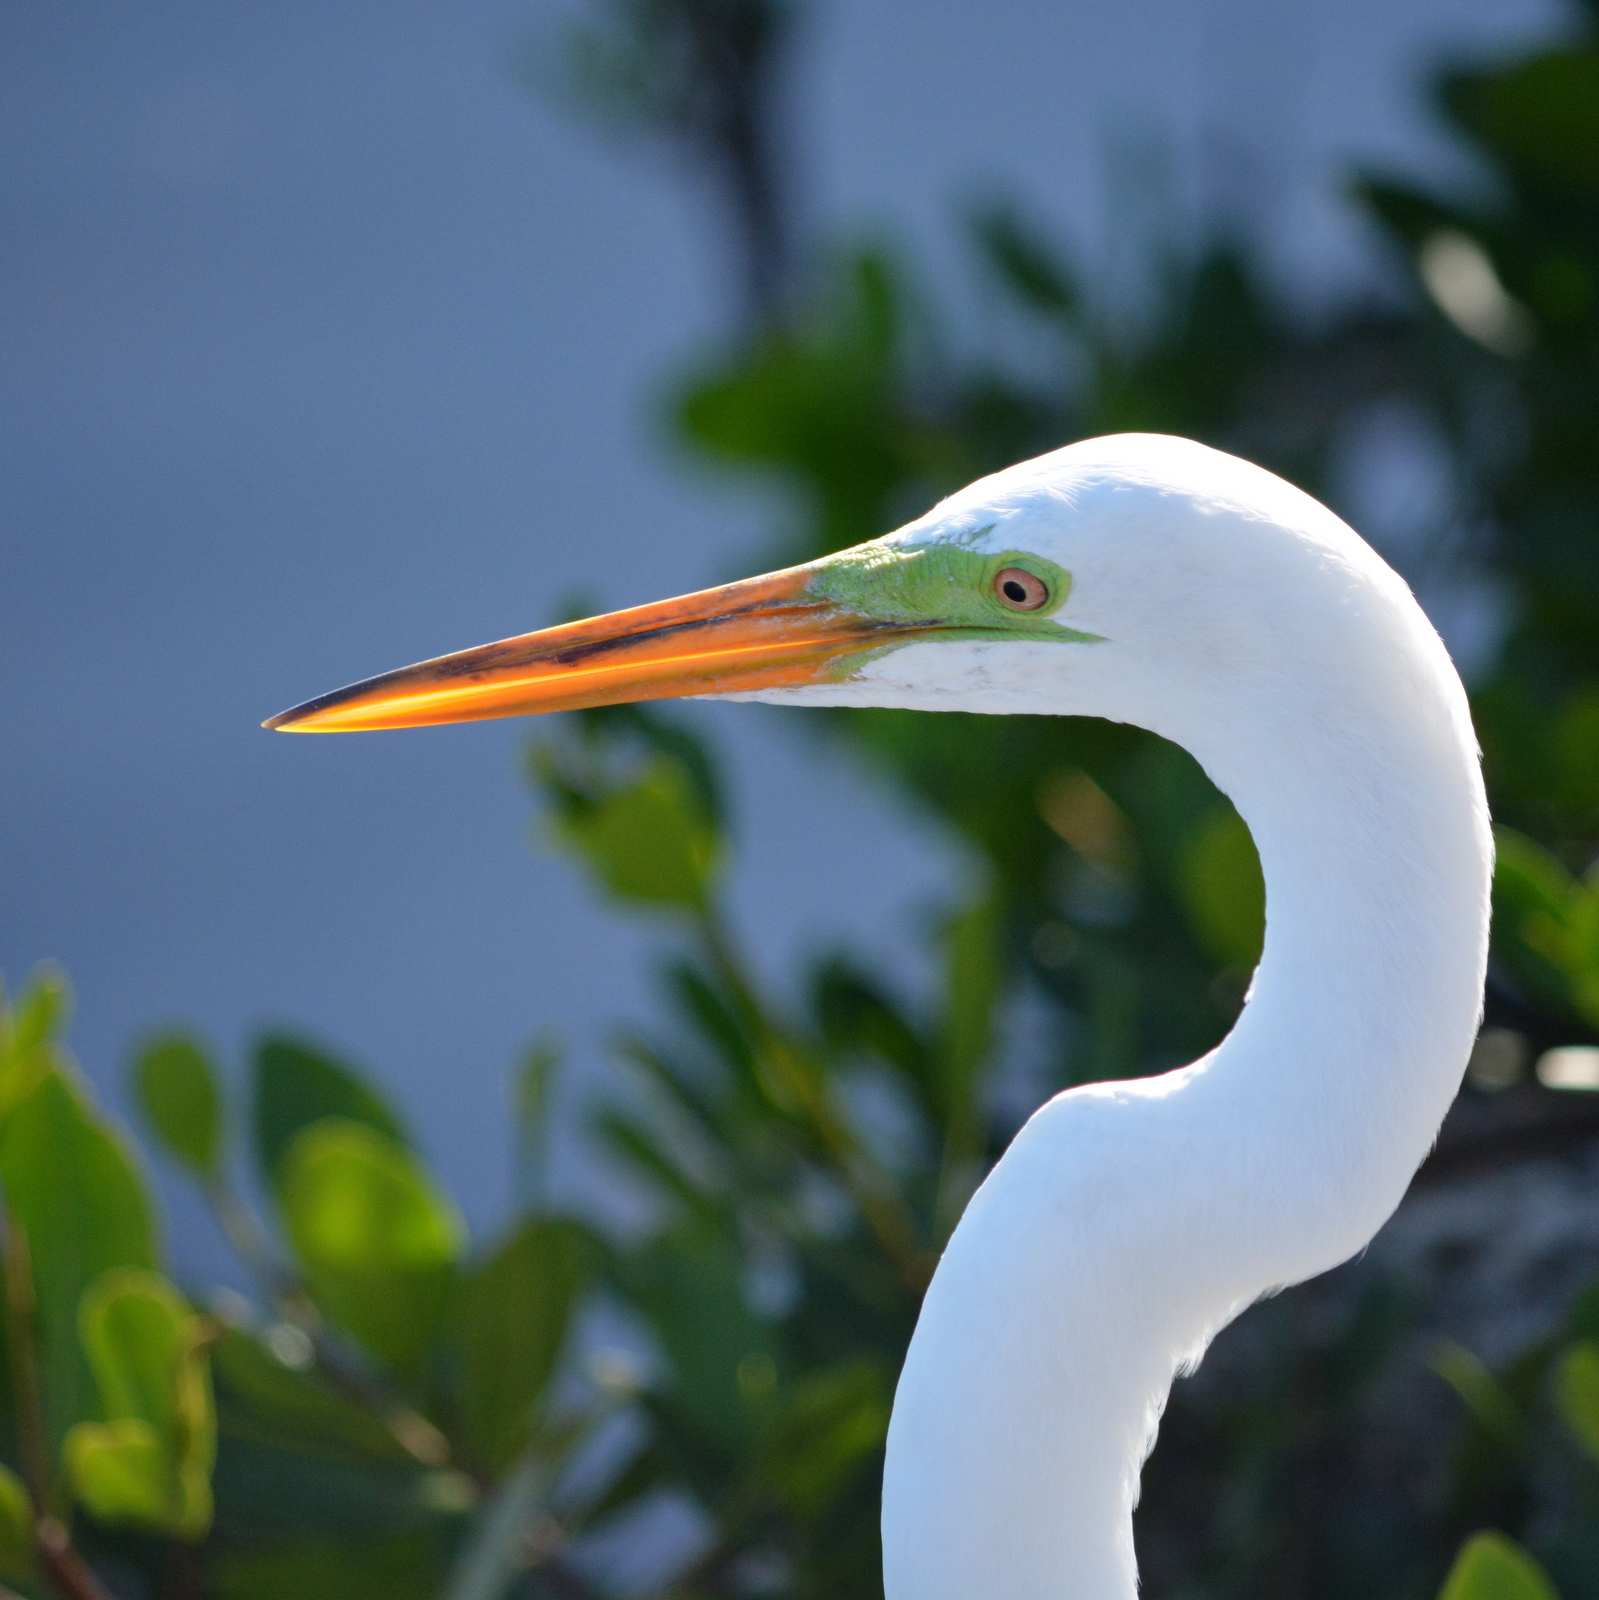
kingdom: Animalia
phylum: Chordata
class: Aves
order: Pelecaniformes
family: Ardeidae
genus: Ardea
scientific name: Ardea alba
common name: Great egret
